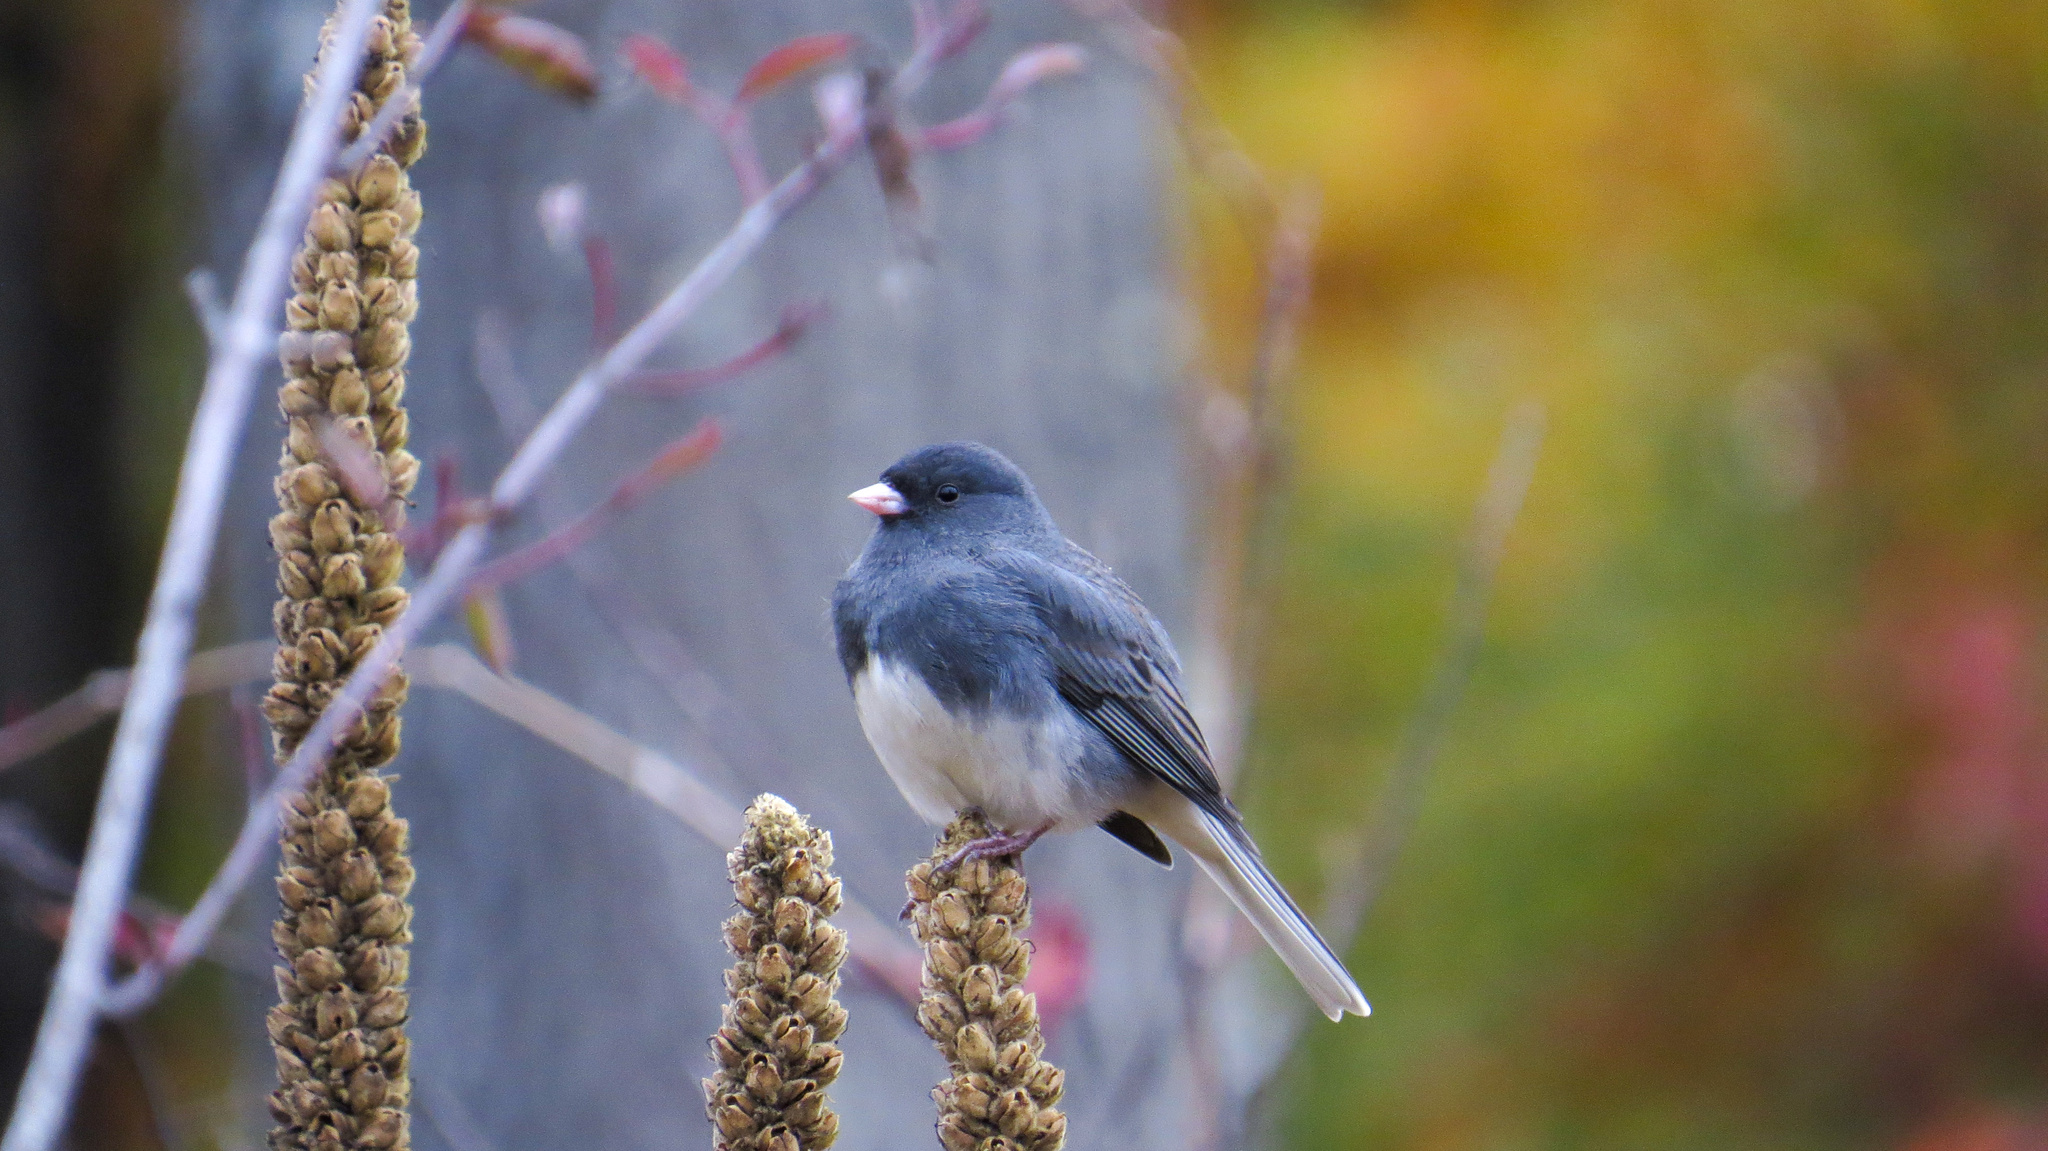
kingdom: Animalia
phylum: Chordata
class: Aves
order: Passeriformes
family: Passerellidae
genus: Junco
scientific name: Junco hyemalis
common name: Dark-eyed junco
